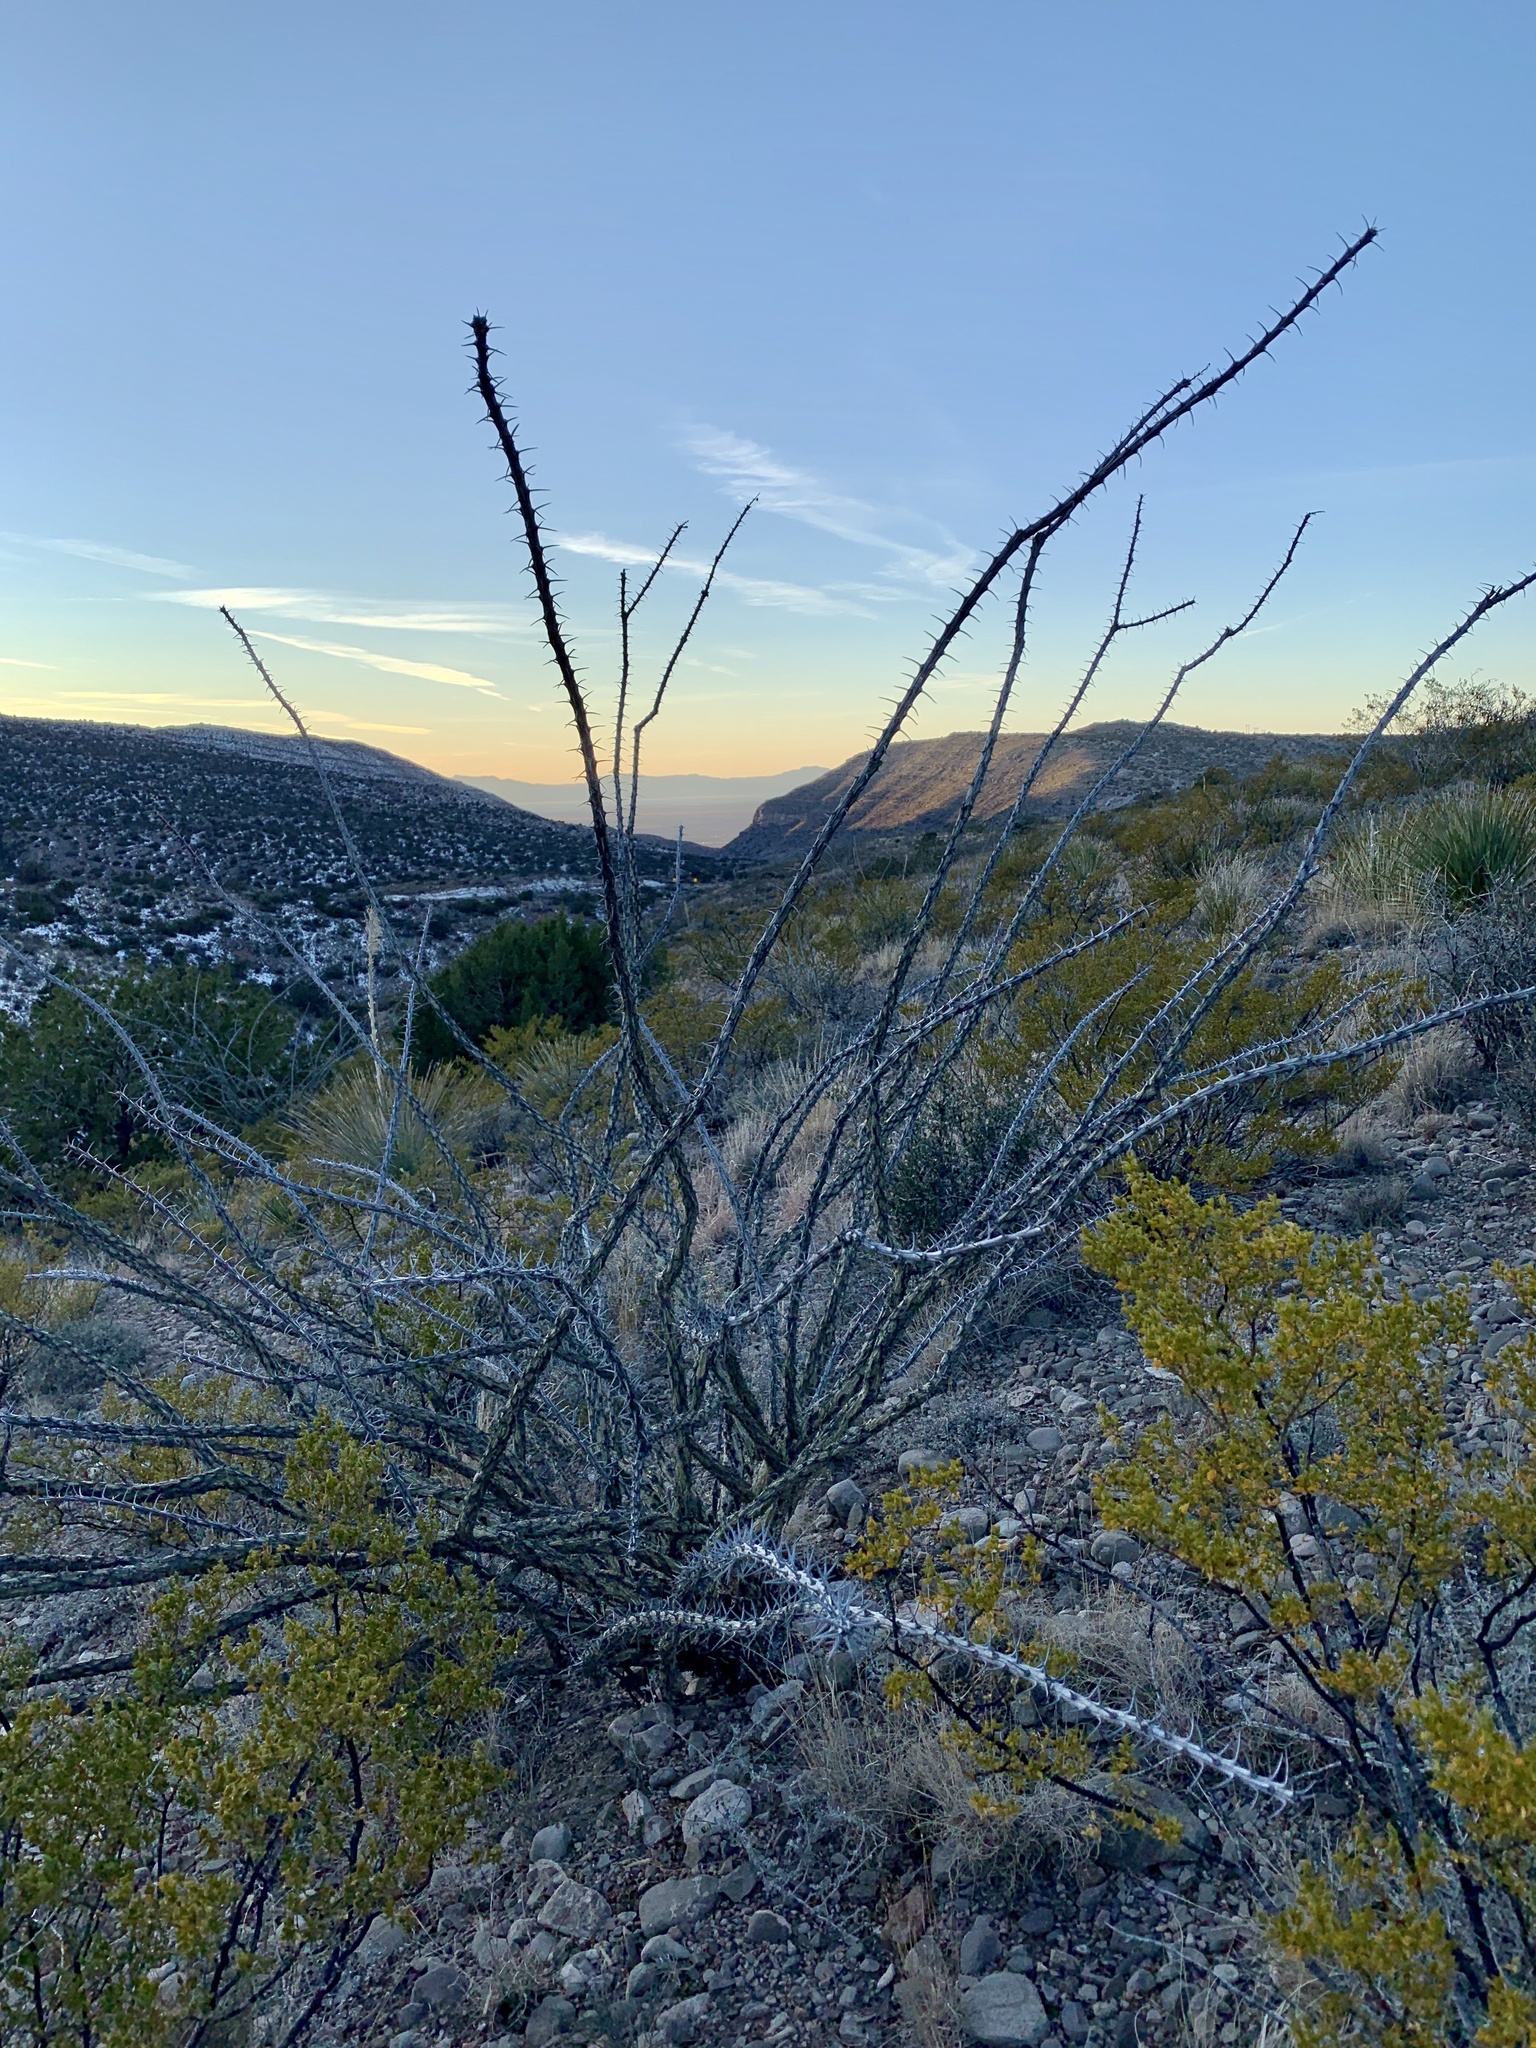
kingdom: Plantae
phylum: Tracheophyta
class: Magnoliopsida
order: Ericales
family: Fouquieriaceae
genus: Fouquieria
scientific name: Fouquieria splendens
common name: Vine-cactus
